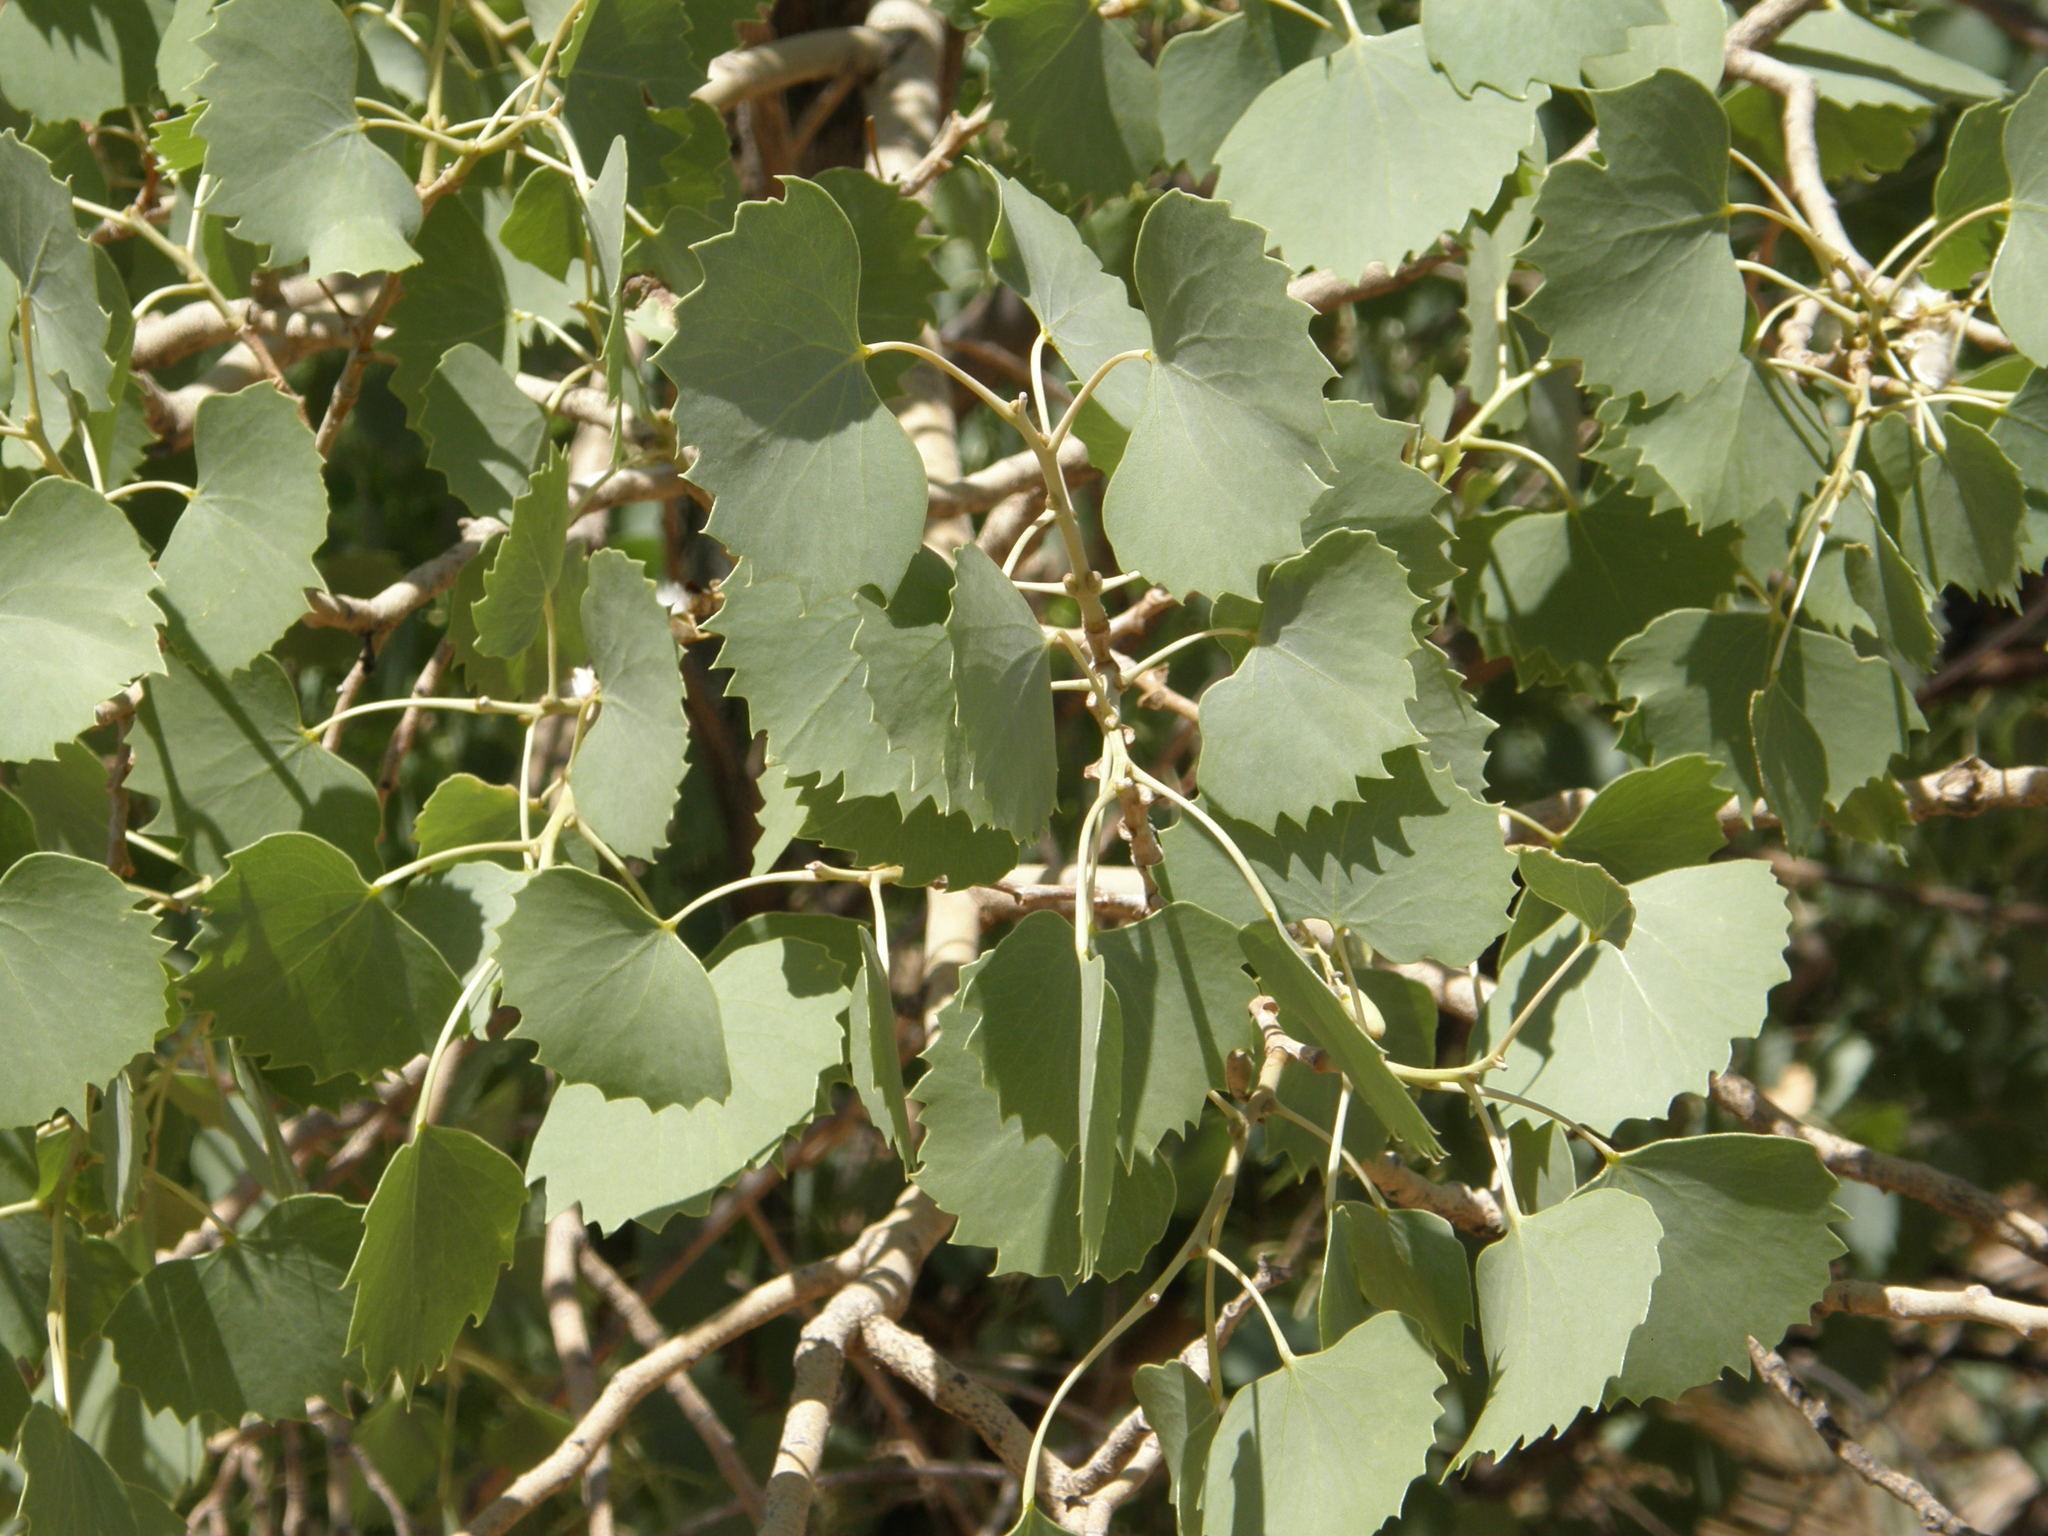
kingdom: Plantae
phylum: Tracheophyta
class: Magnoliopsida
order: Malpighiales
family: Salicaceae
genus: Populus
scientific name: Populus euphratica
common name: Euphrates poplar
